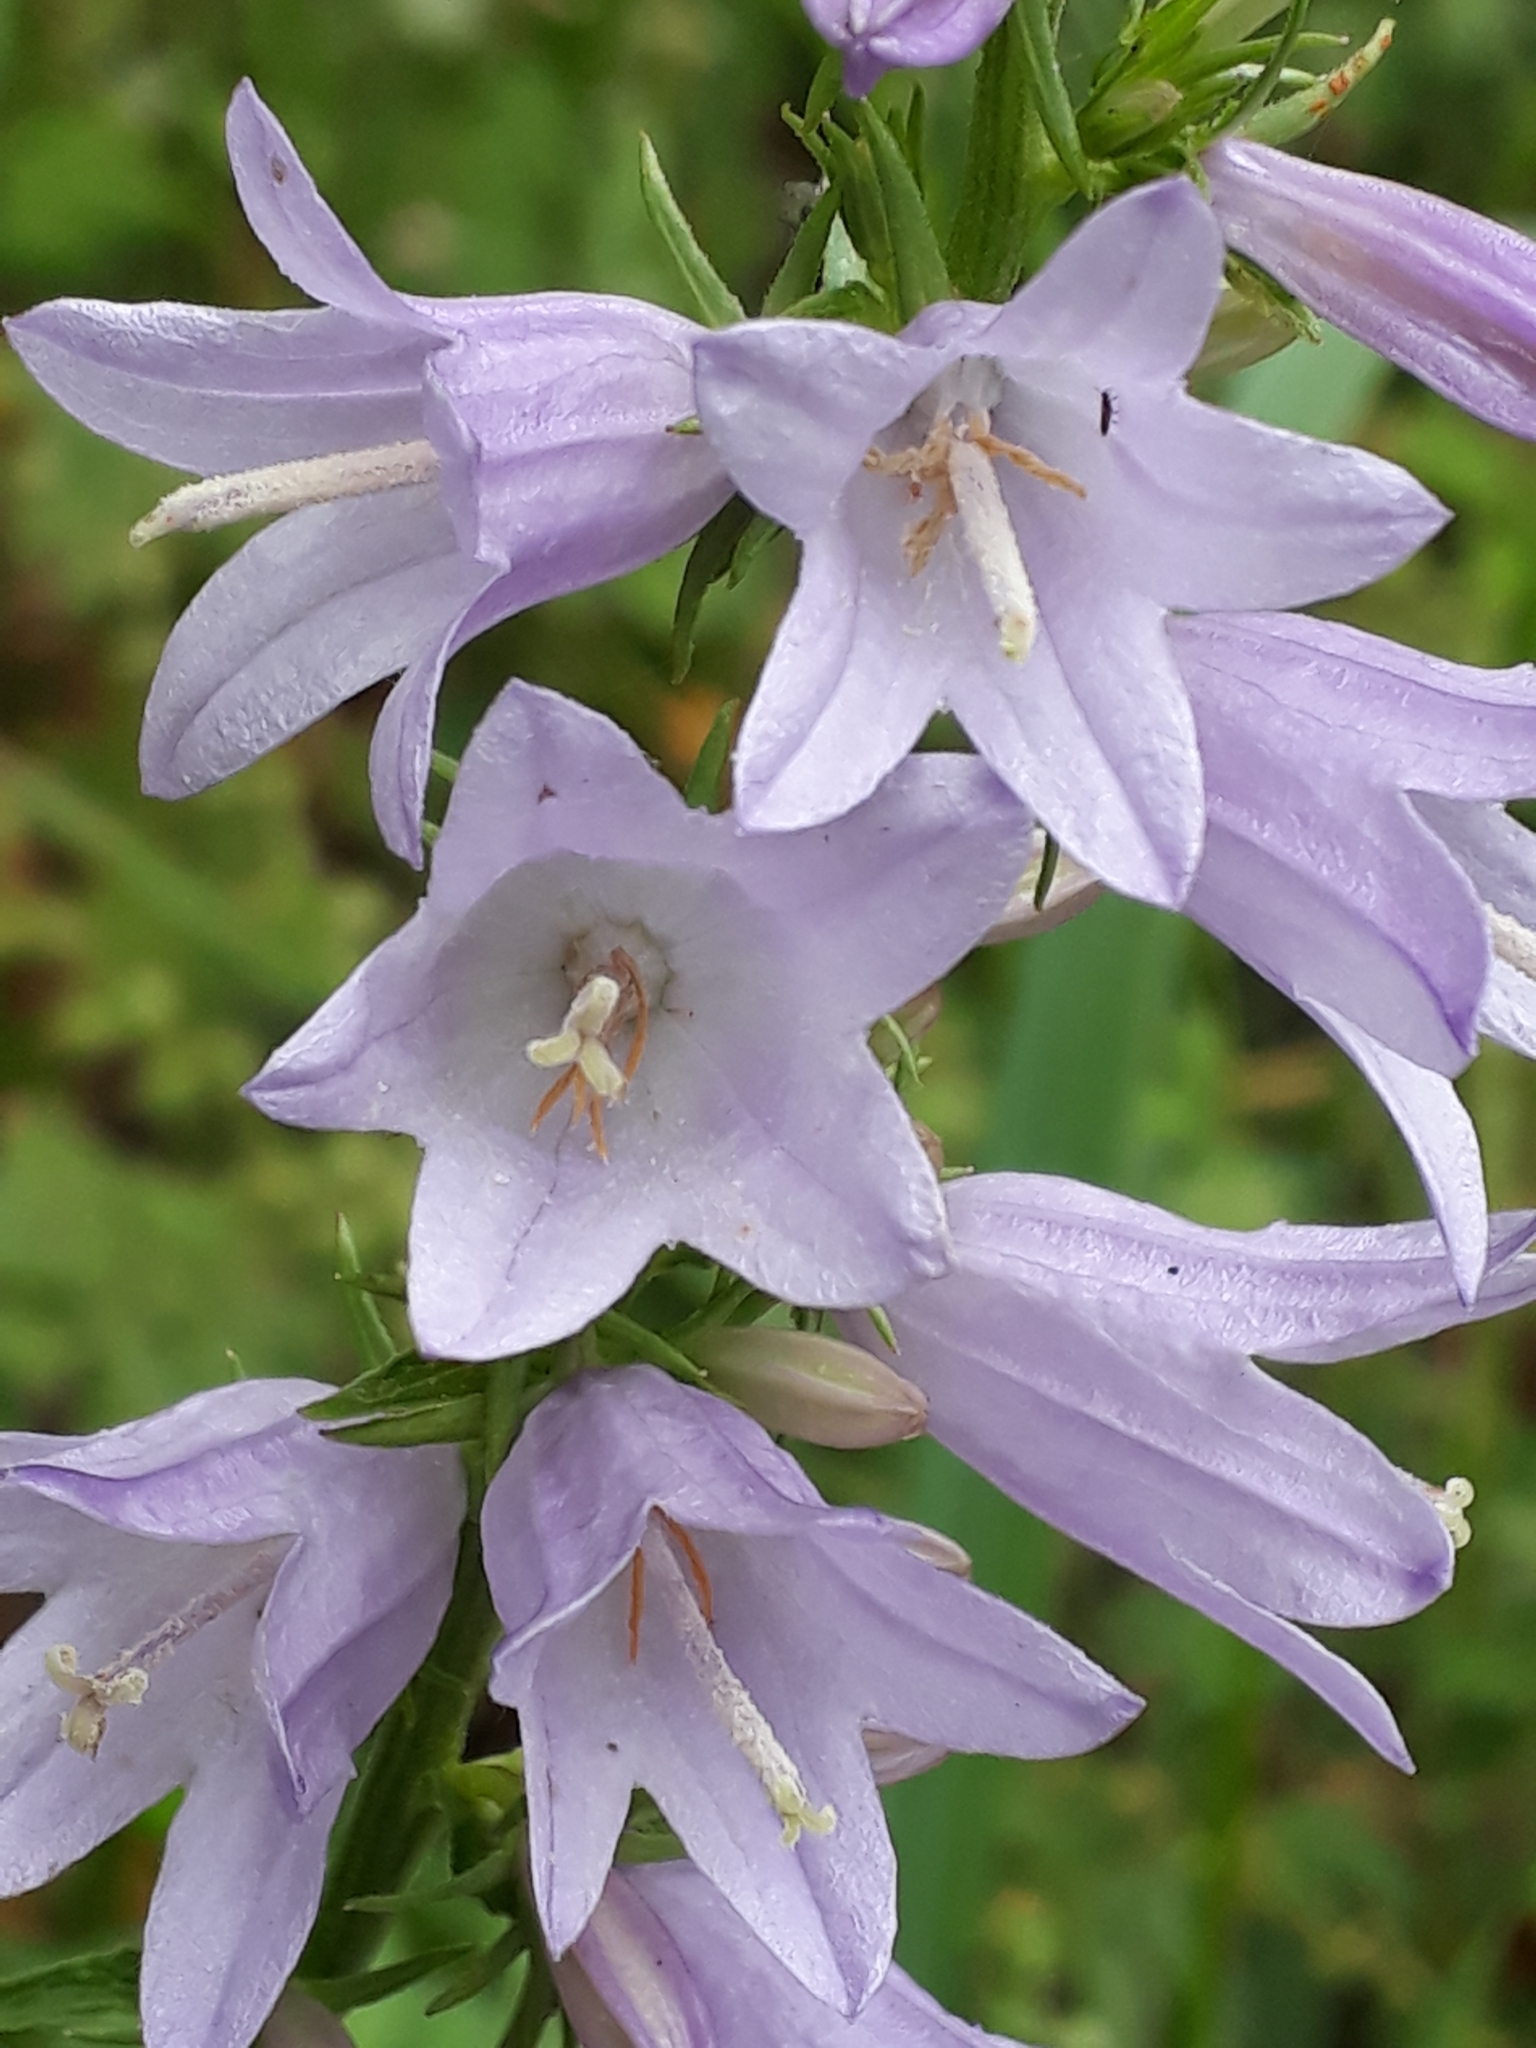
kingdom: Plantae
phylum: Tracheophyta
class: Magnoliopsida
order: Asterales
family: Campanulaceae
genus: Campanula
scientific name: Campanula bononiensis
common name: Pale bellflower
